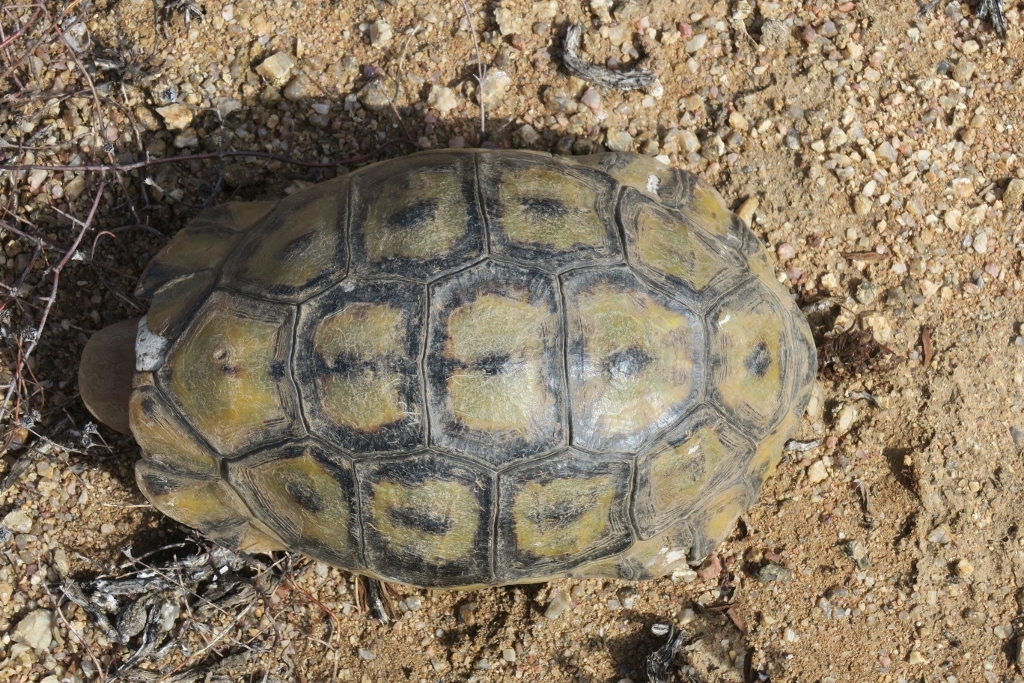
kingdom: Animalia
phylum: Chordata
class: Testudines
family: Testudinidae
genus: Chersina
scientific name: Chersina angulata
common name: South african bowsprit tortoise
